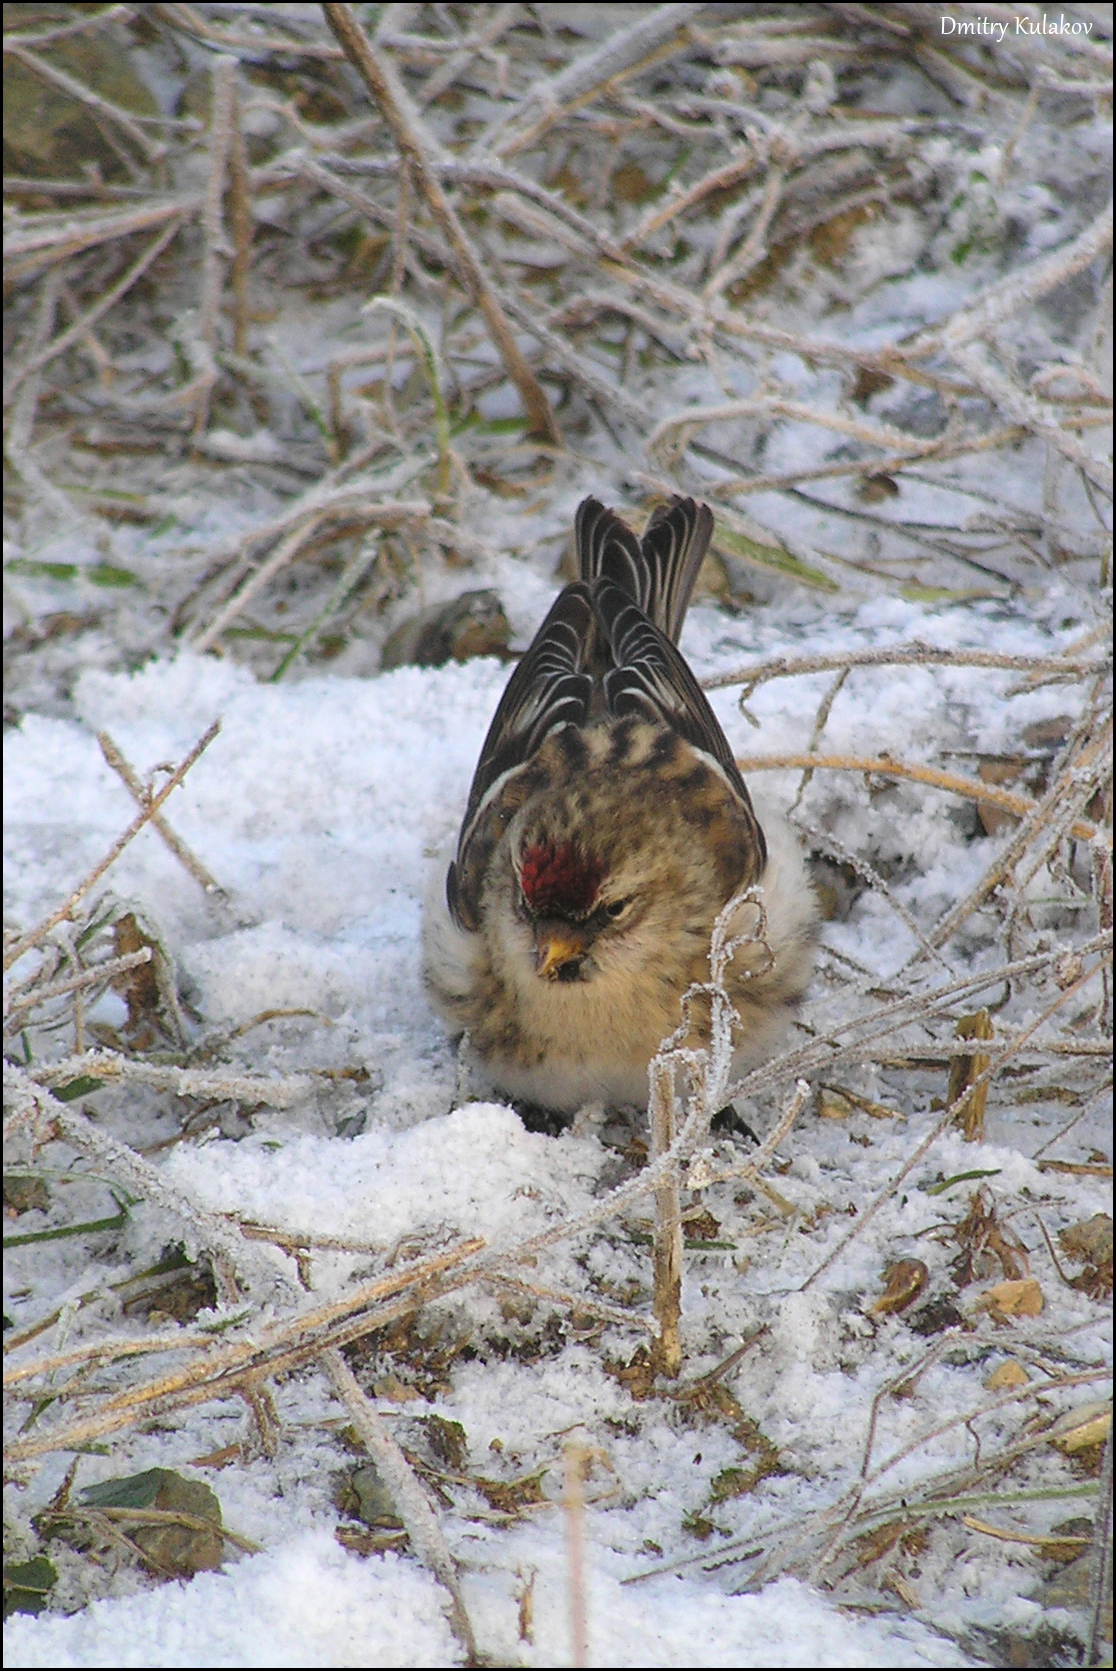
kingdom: Animalia
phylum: Chordata
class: Aves
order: Passeriformes
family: Fringillidae
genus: Acanthis
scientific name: Acanthis flammea
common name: Common redpoll
